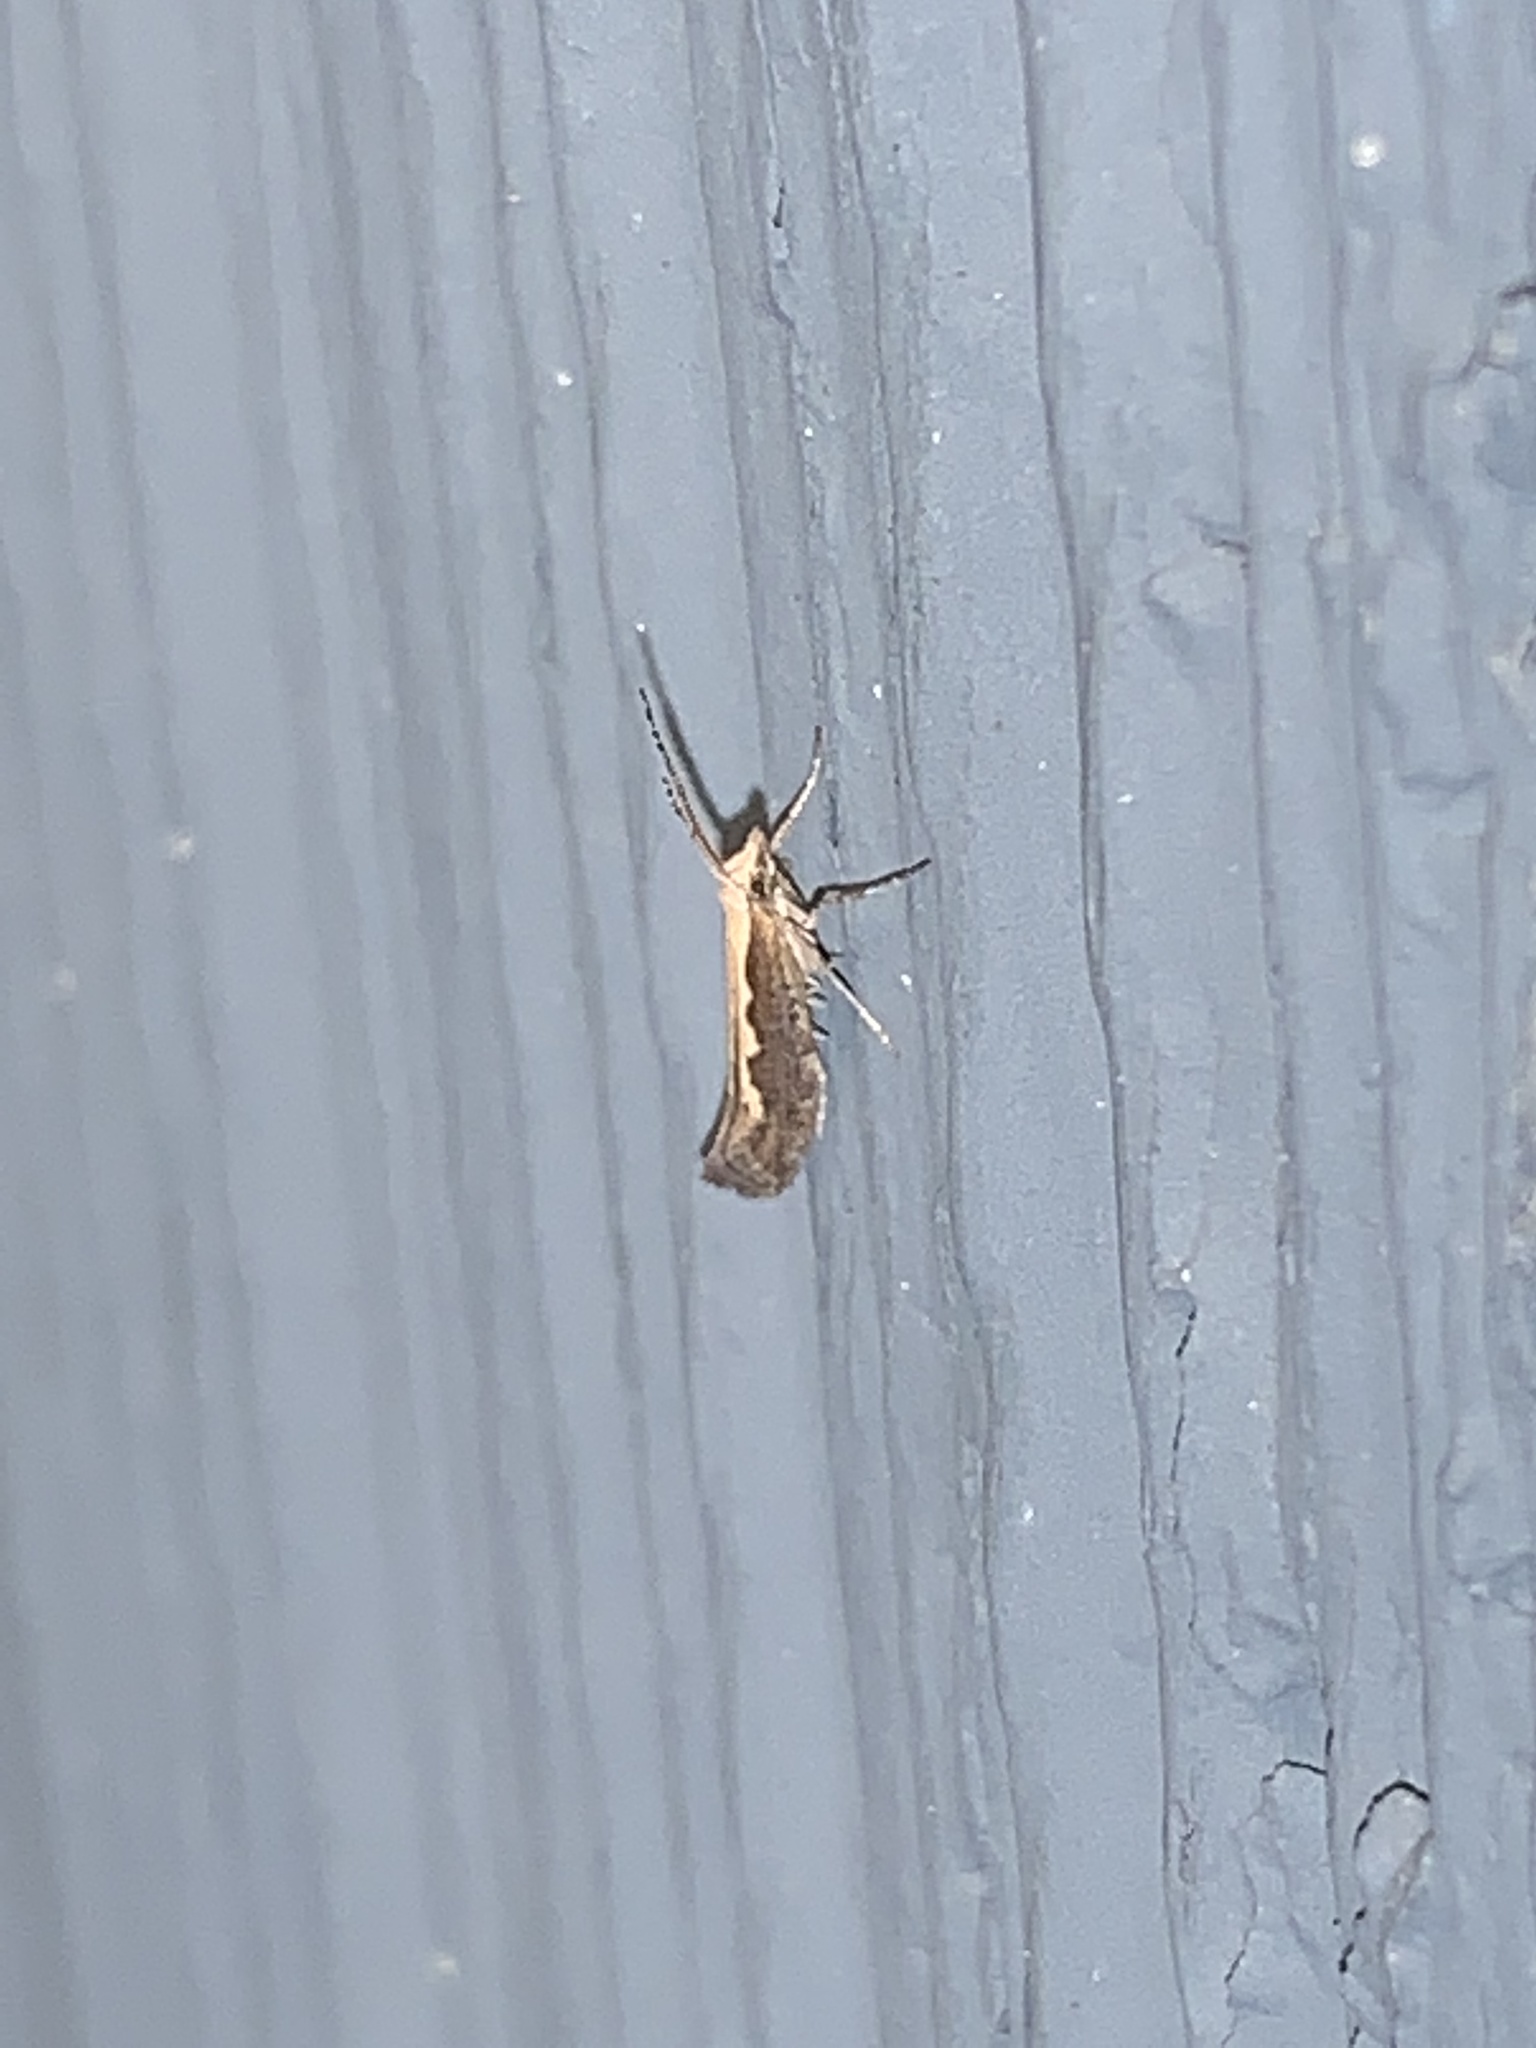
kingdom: Animalia
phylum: Arthropoda
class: Insecta
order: Lepidoptera
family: Plutellidae
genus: Plutella
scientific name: Plutella xylostella
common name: Diamond-back moth
